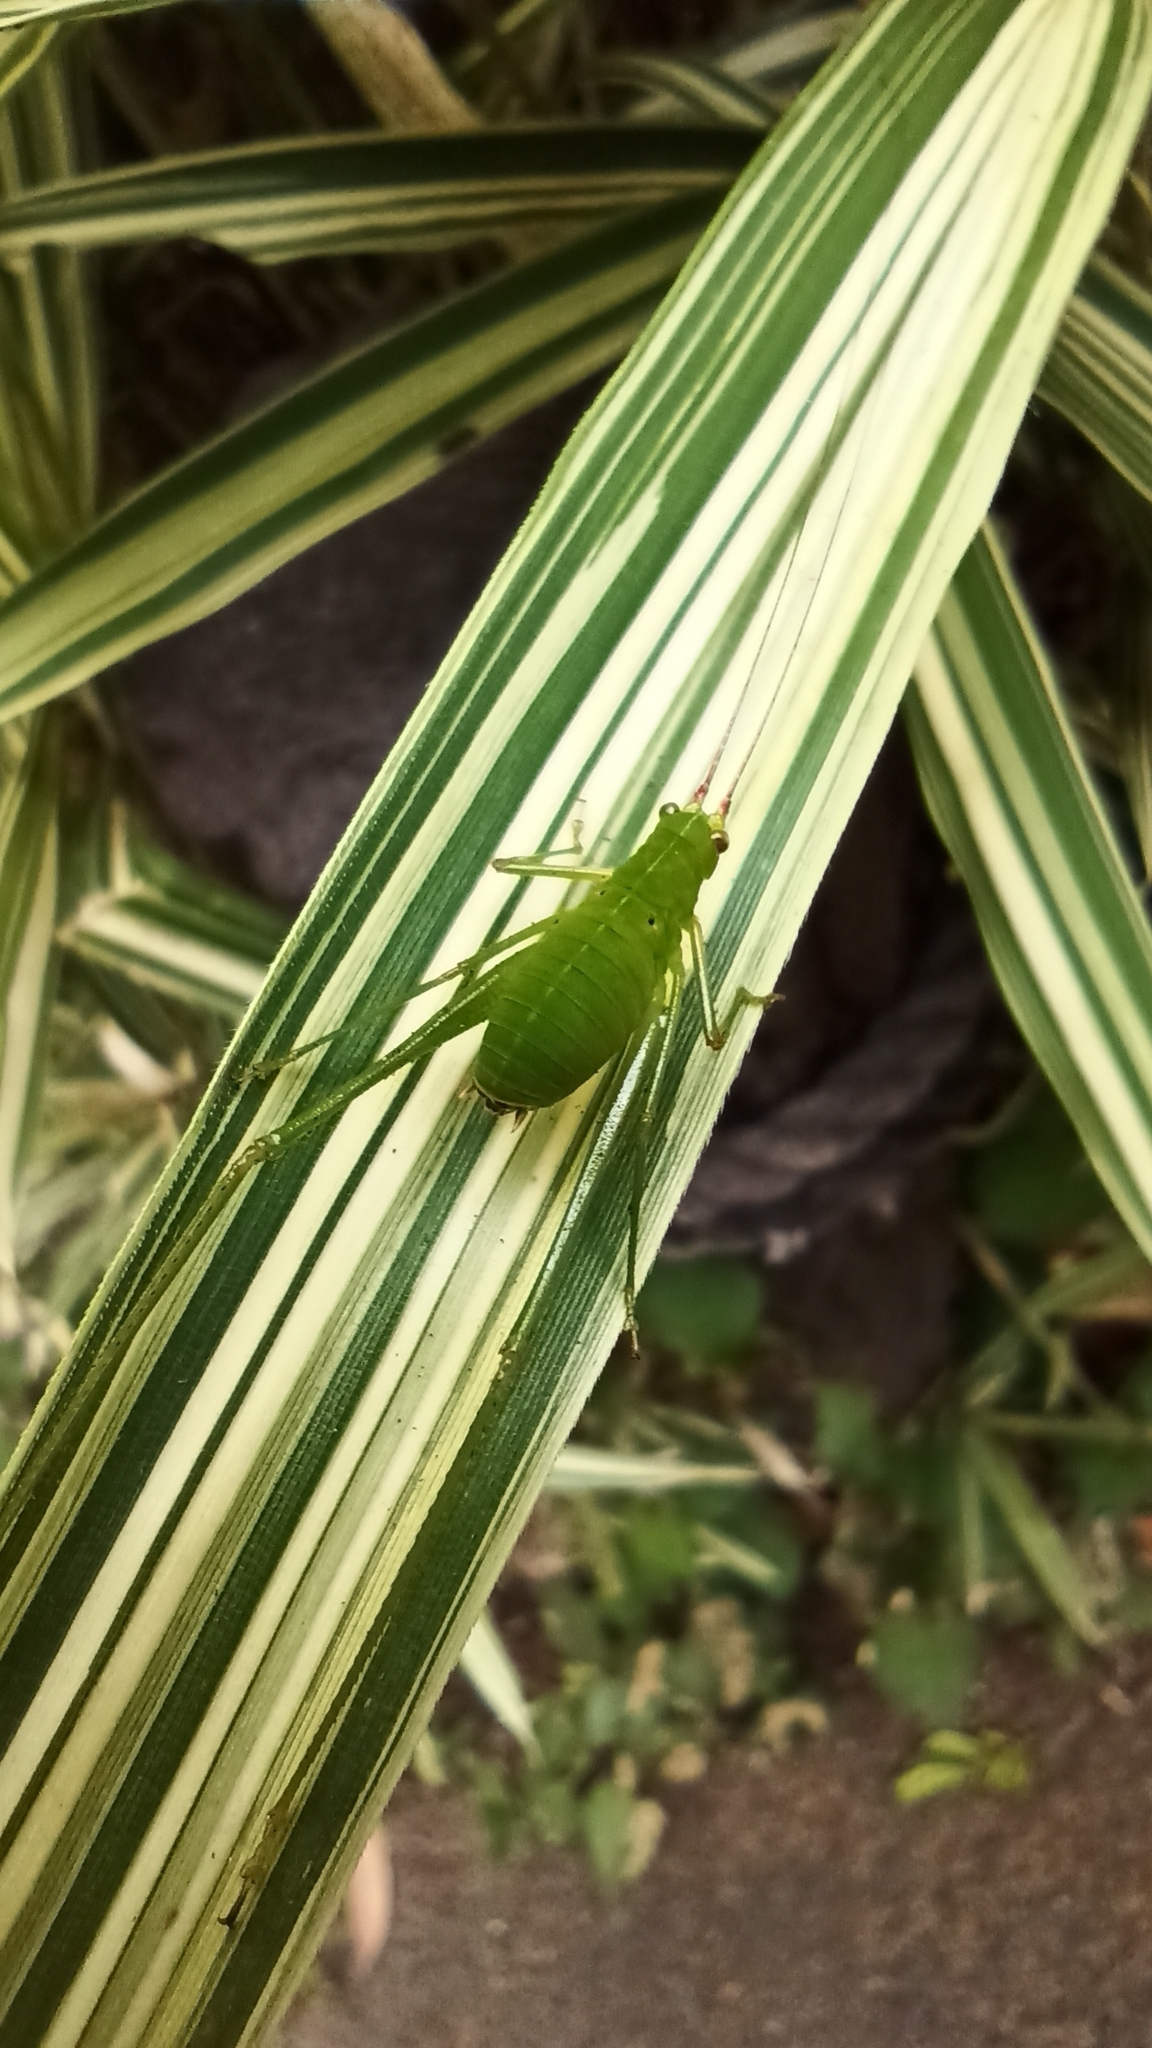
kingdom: Animalia
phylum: Arthropoda
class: Insecta
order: Orthoptera
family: Tettigoniidae
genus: Holochlora
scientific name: Holochlora japonica
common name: Japanese broadwinged katydid
